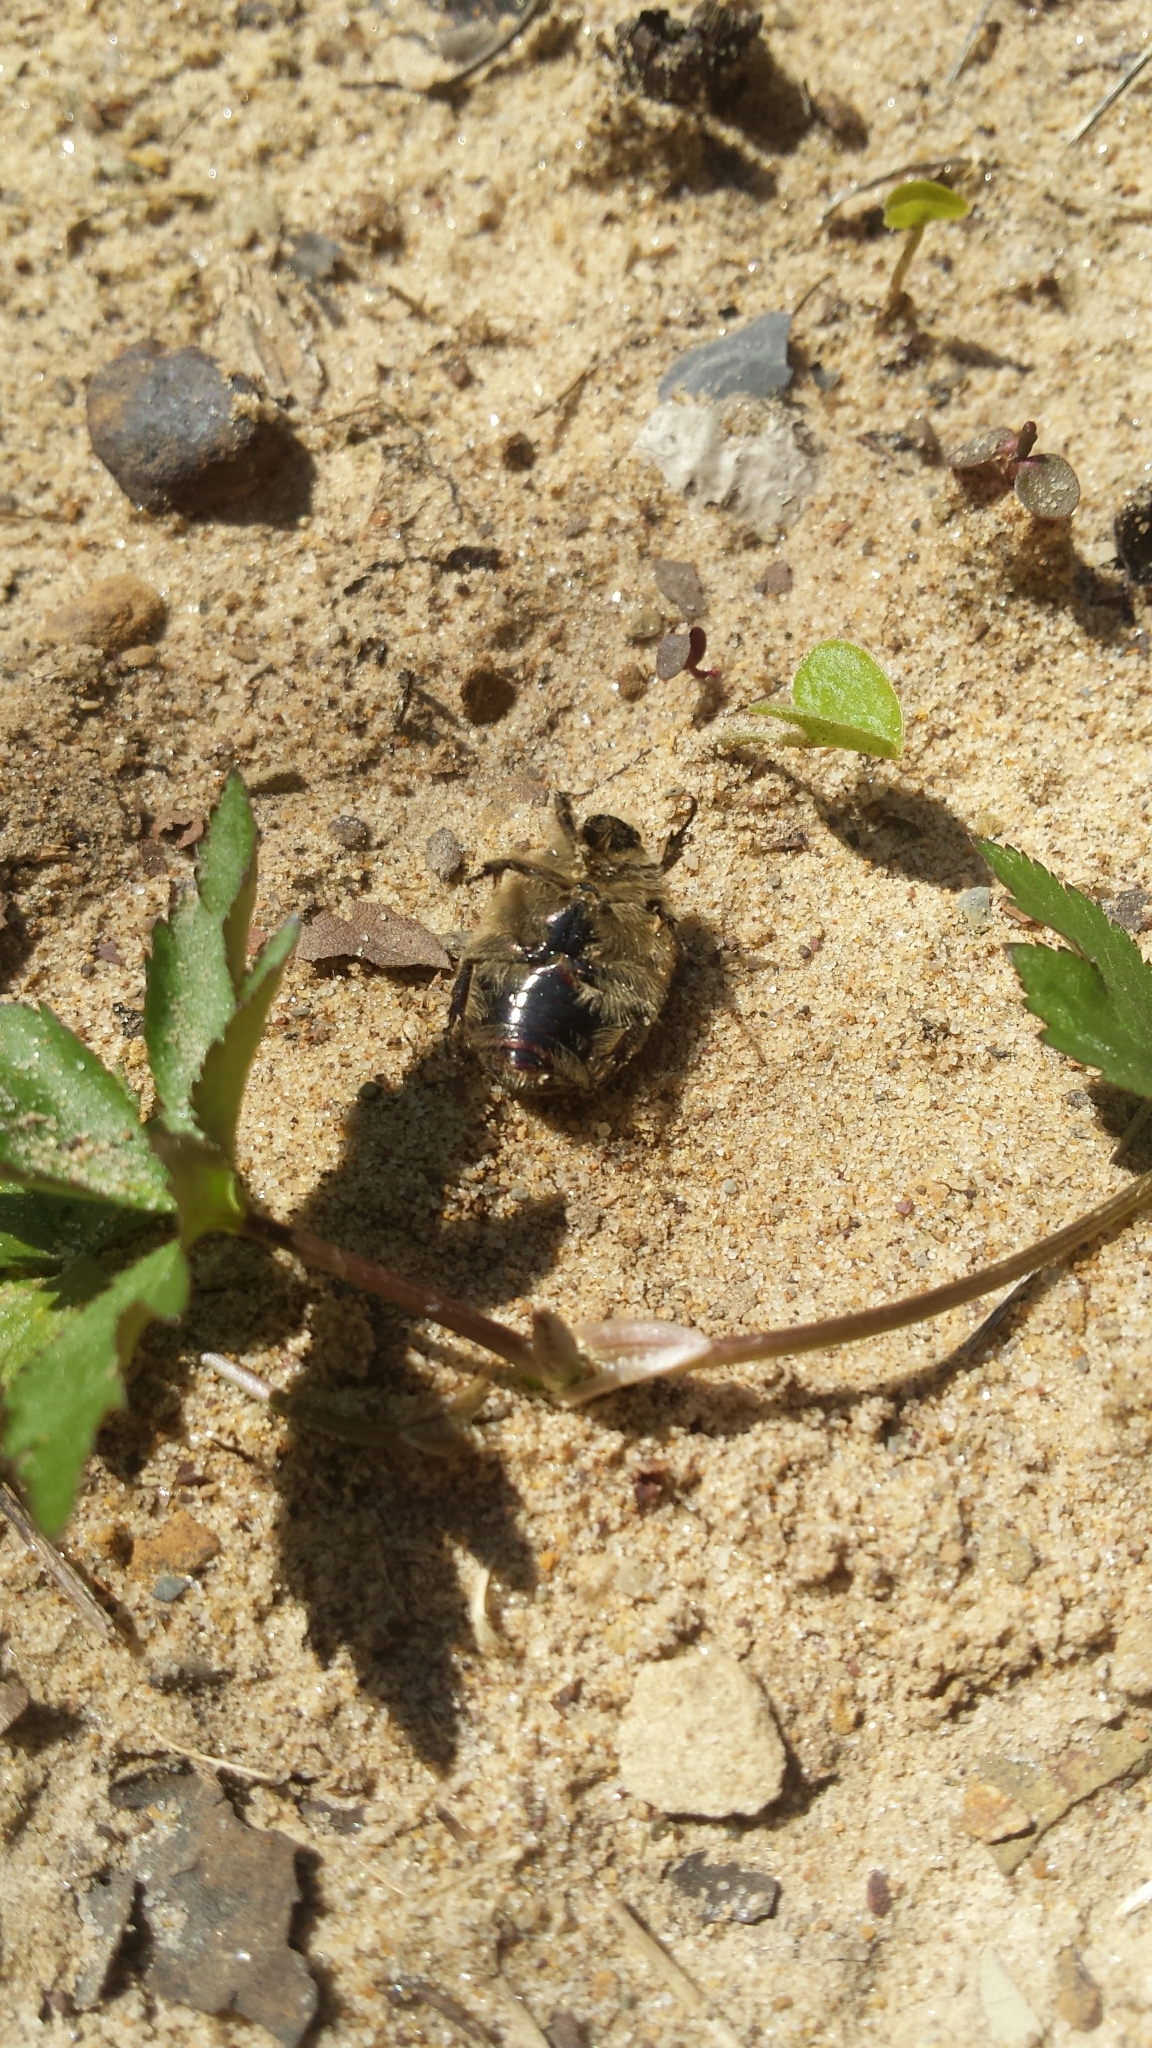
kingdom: Animalia
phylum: Arthropoda
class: Insecta
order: Coleoptera
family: Scarabaeidae
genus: Euphoria
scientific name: Euphoria inda
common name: Bumble flower beetle
